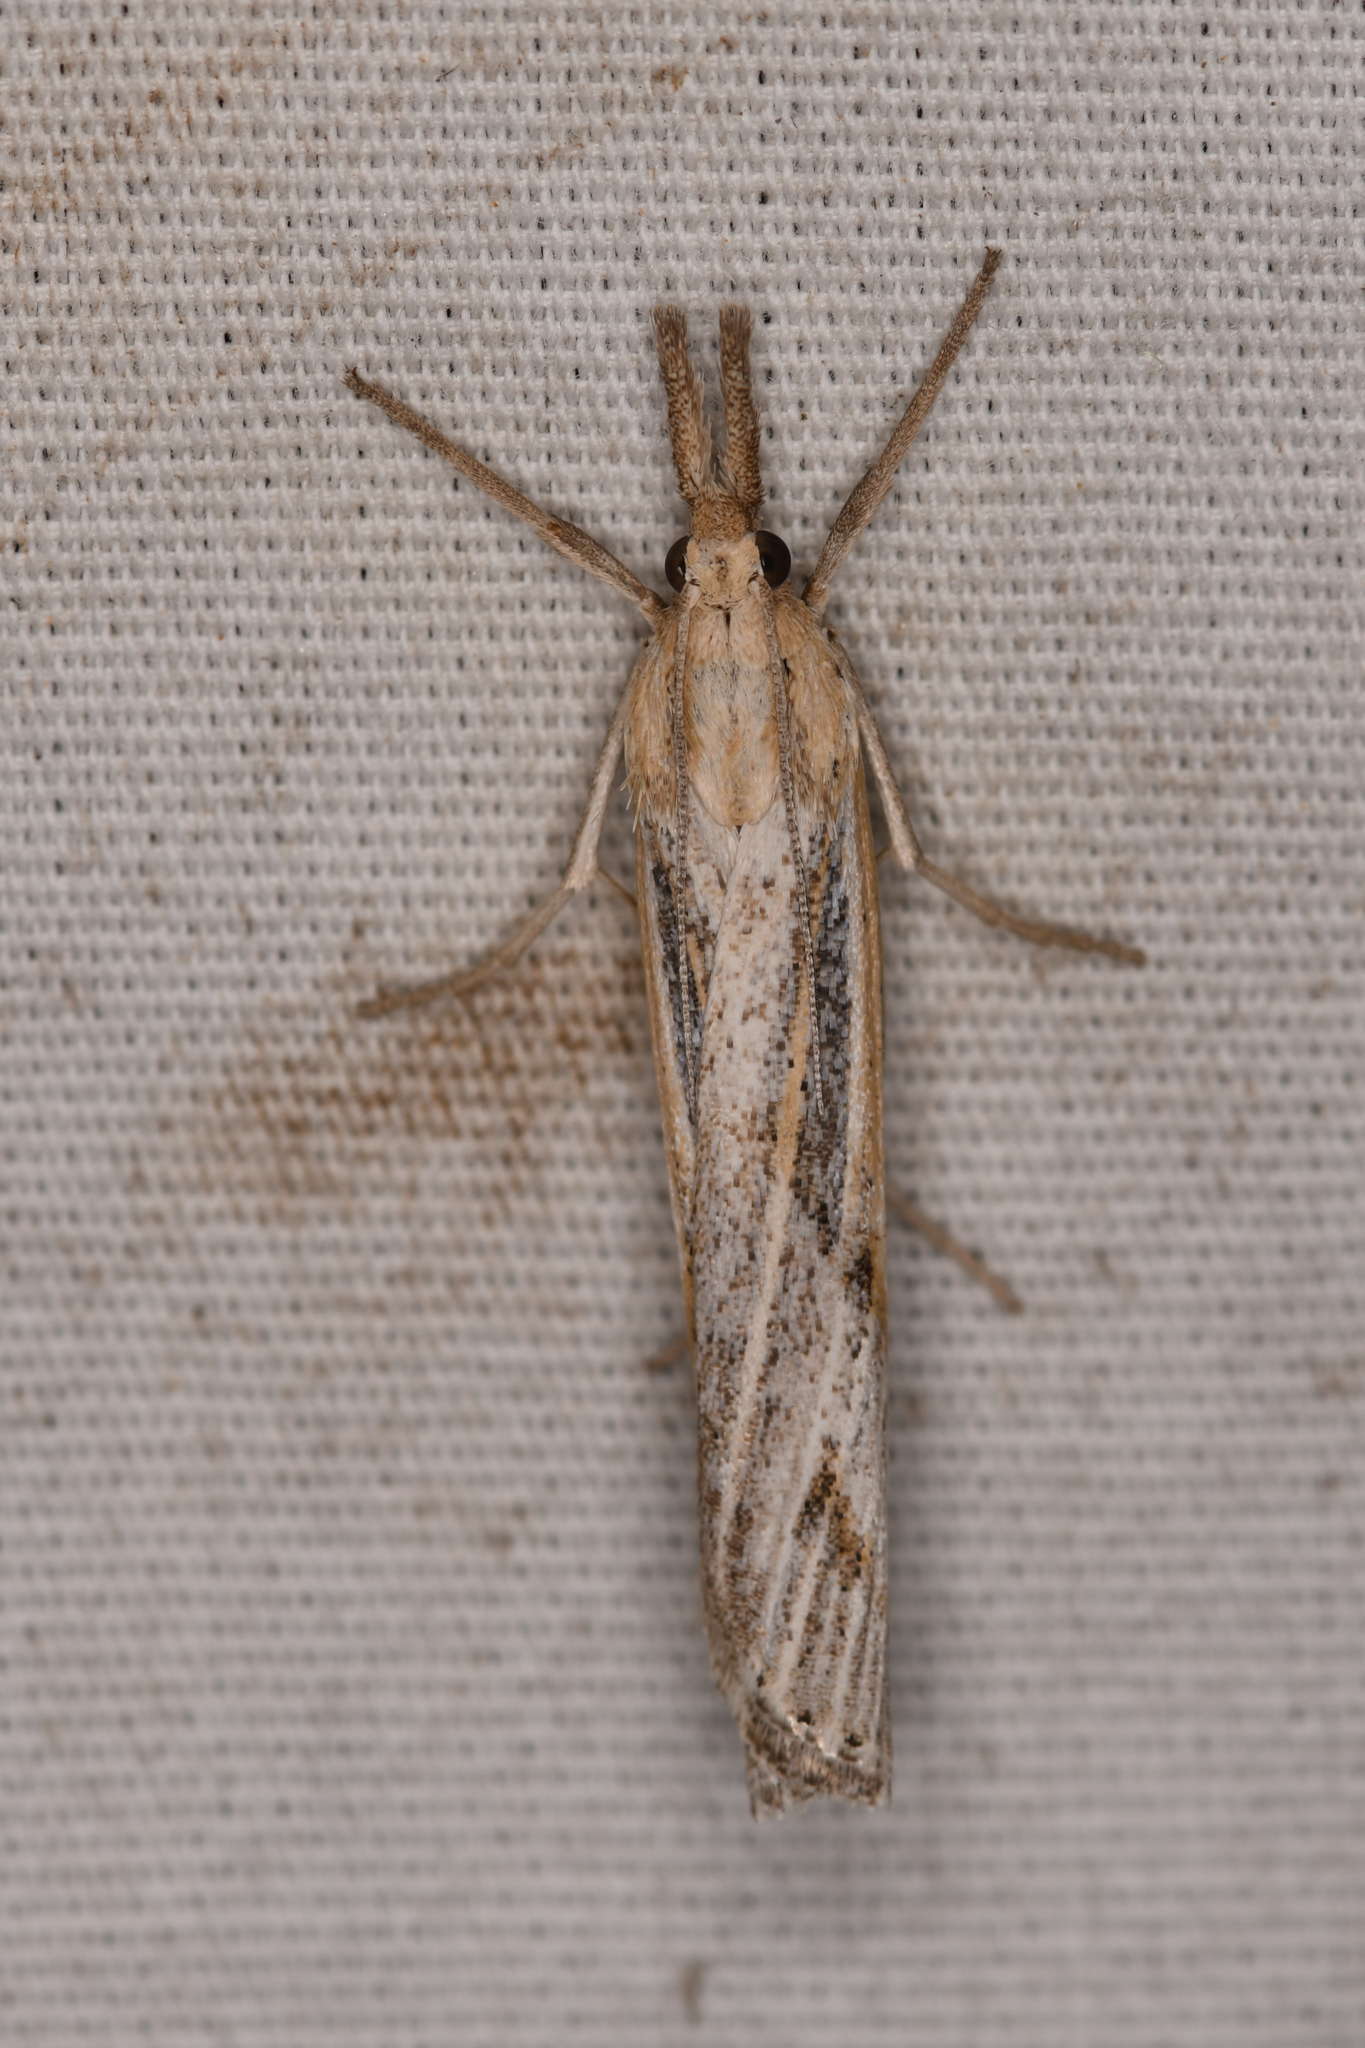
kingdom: Animalia
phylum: Arthropoda
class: Insecta
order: Lepidoptera
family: Crambidae
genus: Pediasia
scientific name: Pediasia trisecta
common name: Sod webworm moth
